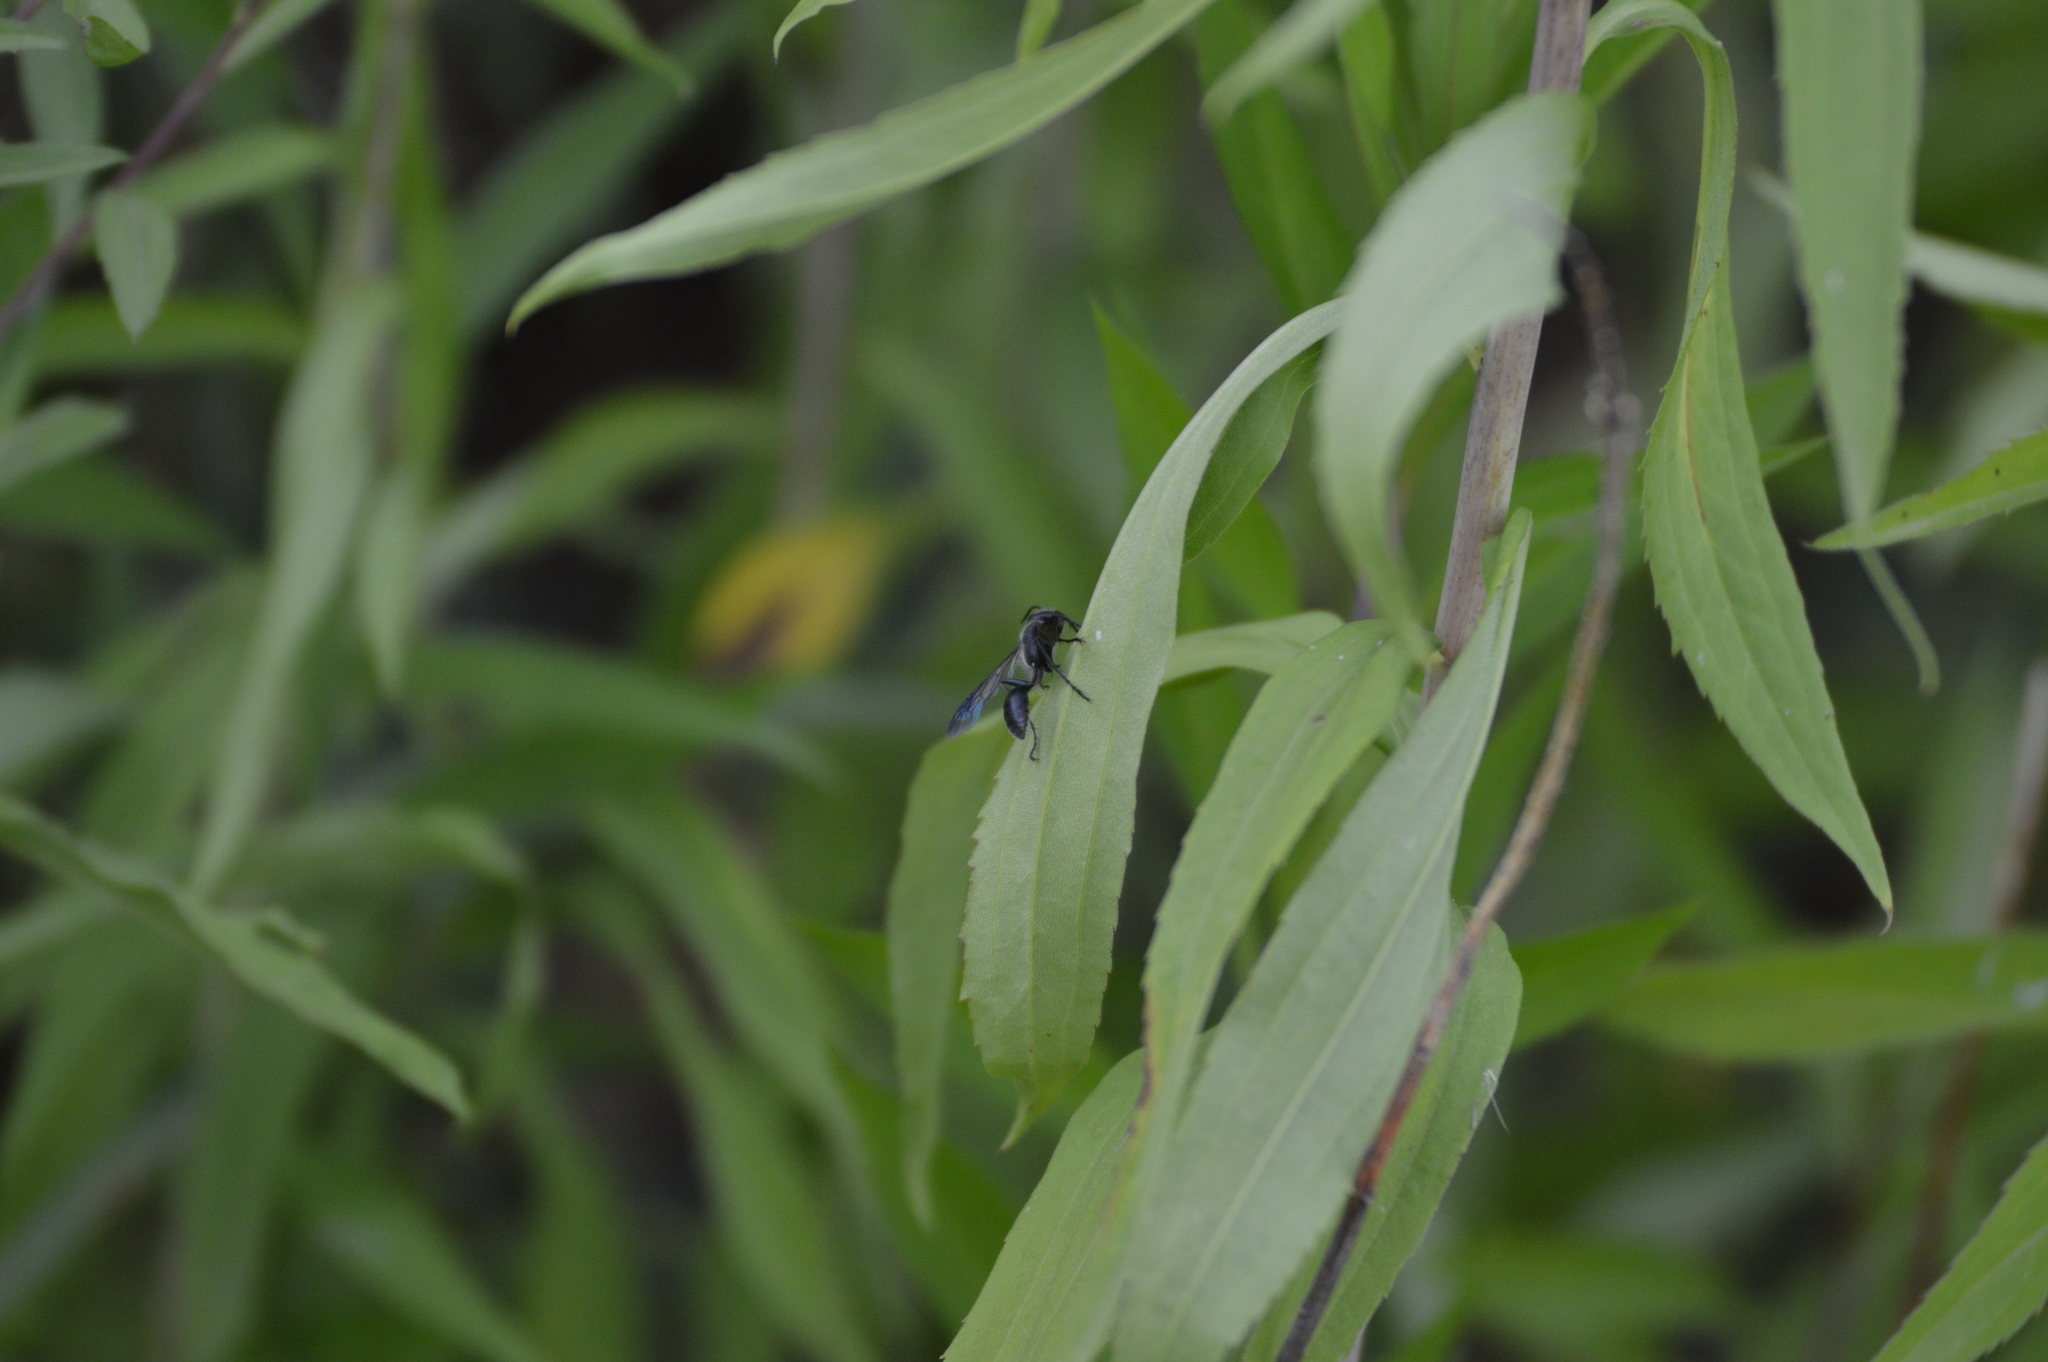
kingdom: Animalia
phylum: Arthropoda
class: Insecta
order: Hymenoptera
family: Sphecidae
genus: Isodontia
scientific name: Isodontia mexicana
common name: Mud dauber
